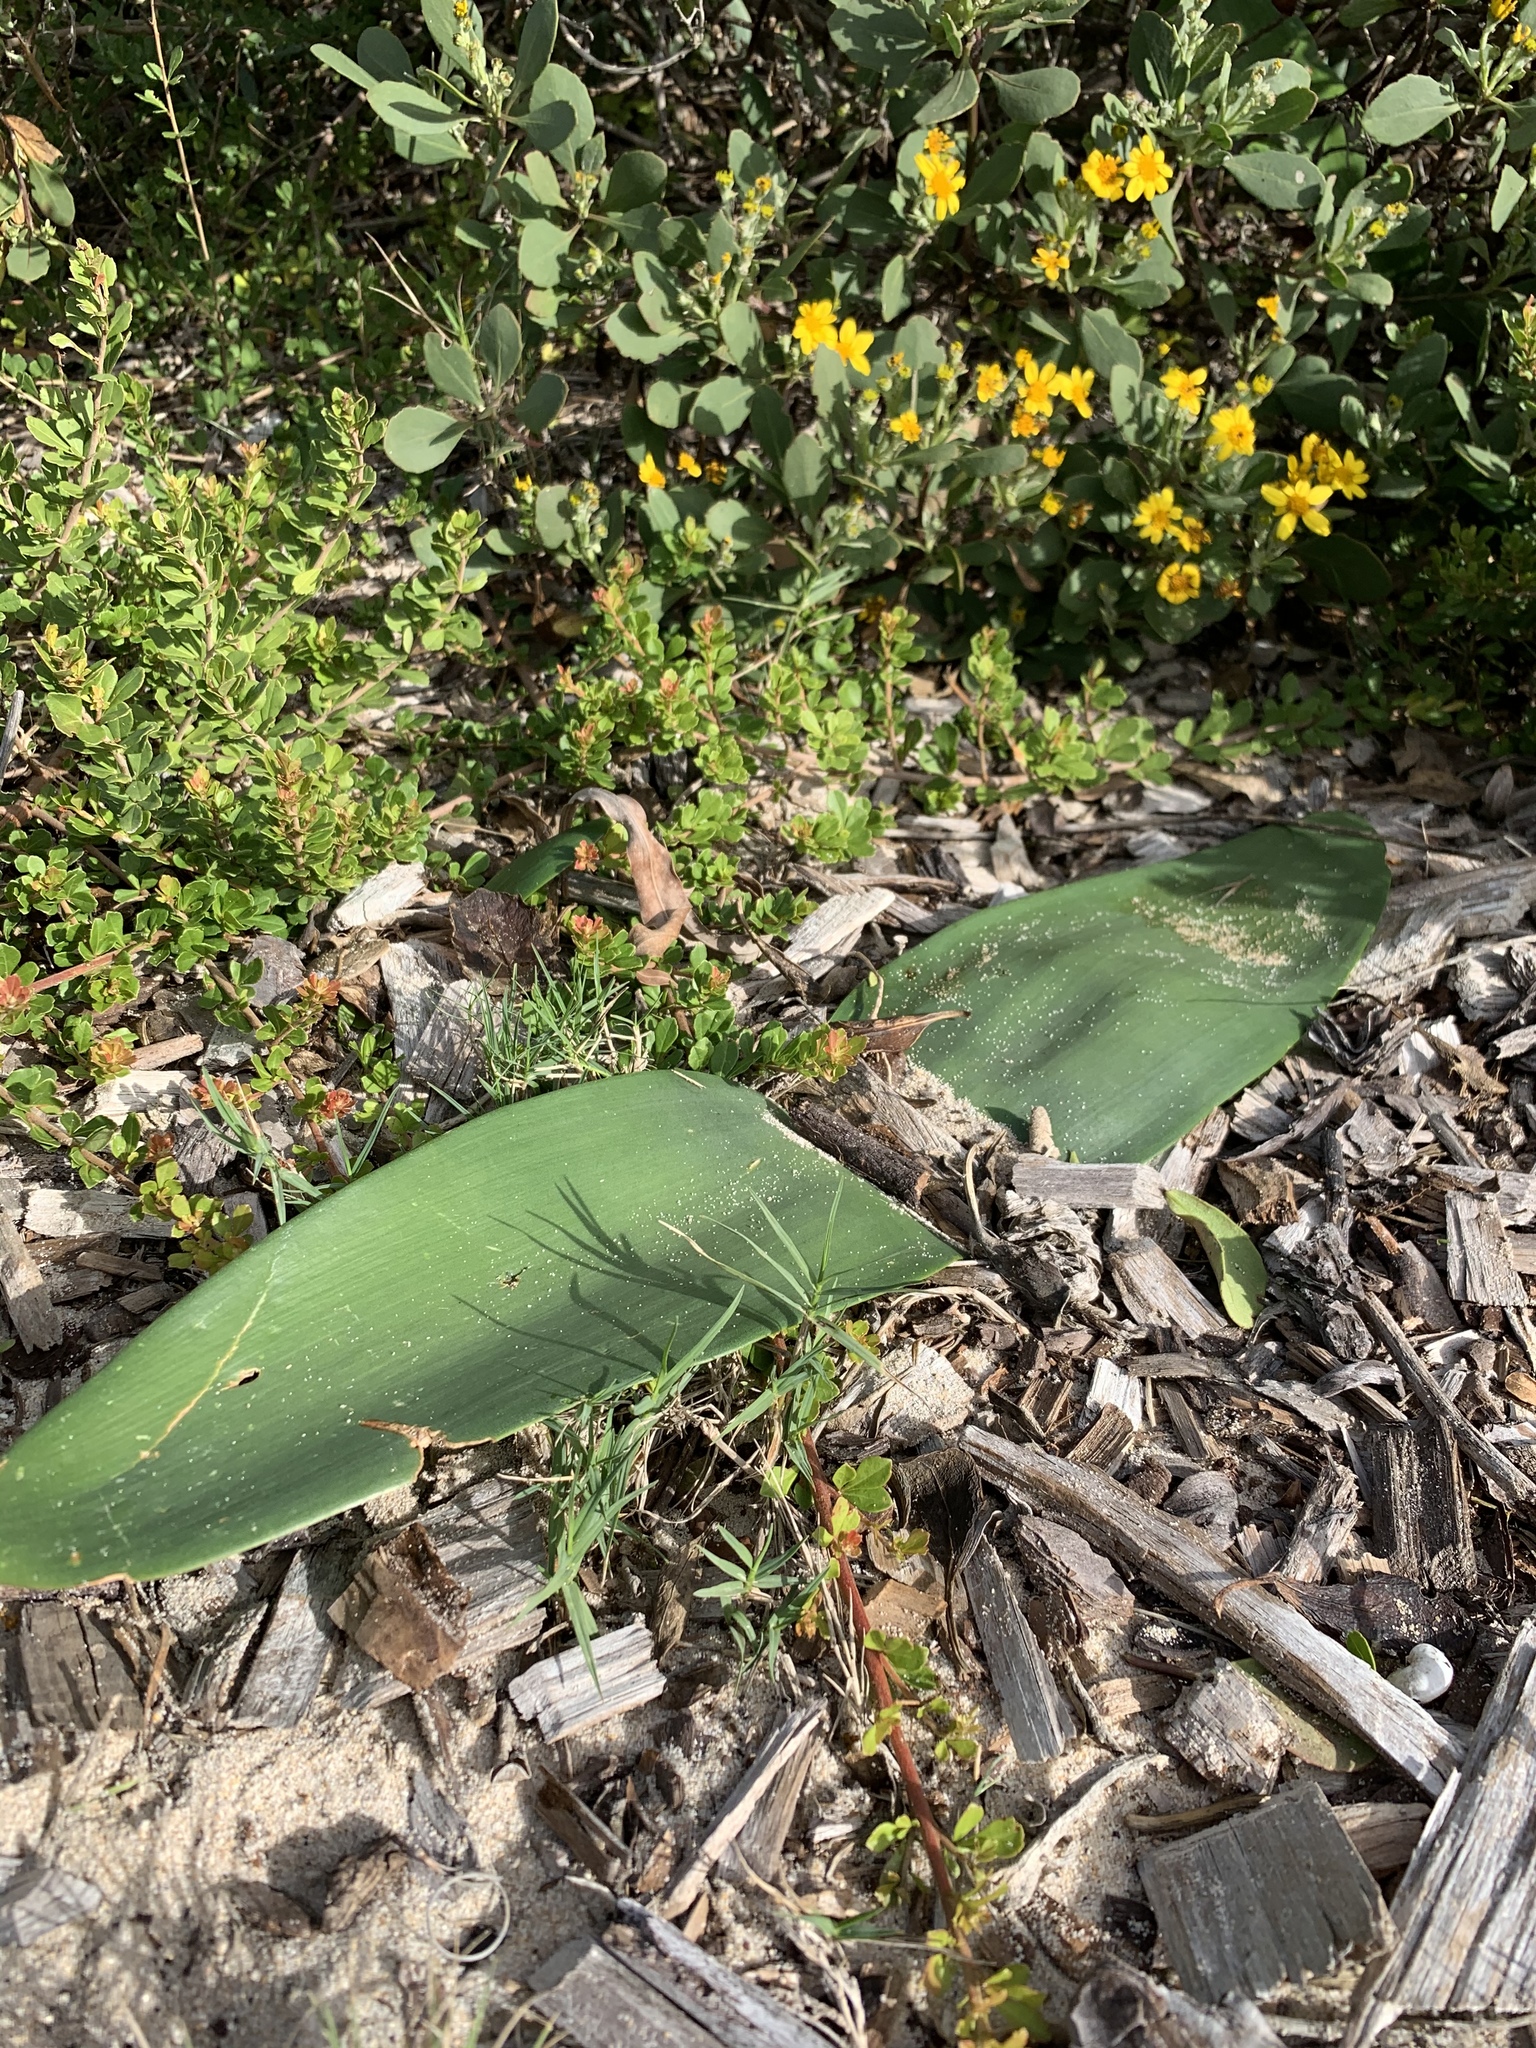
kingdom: Plantae
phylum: Tracheophyta
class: Liliopsida
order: Asparagales
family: Amaryllidaceae
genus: Haemanthus
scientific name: Haemanthus coccineus
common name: Cape-tulip
